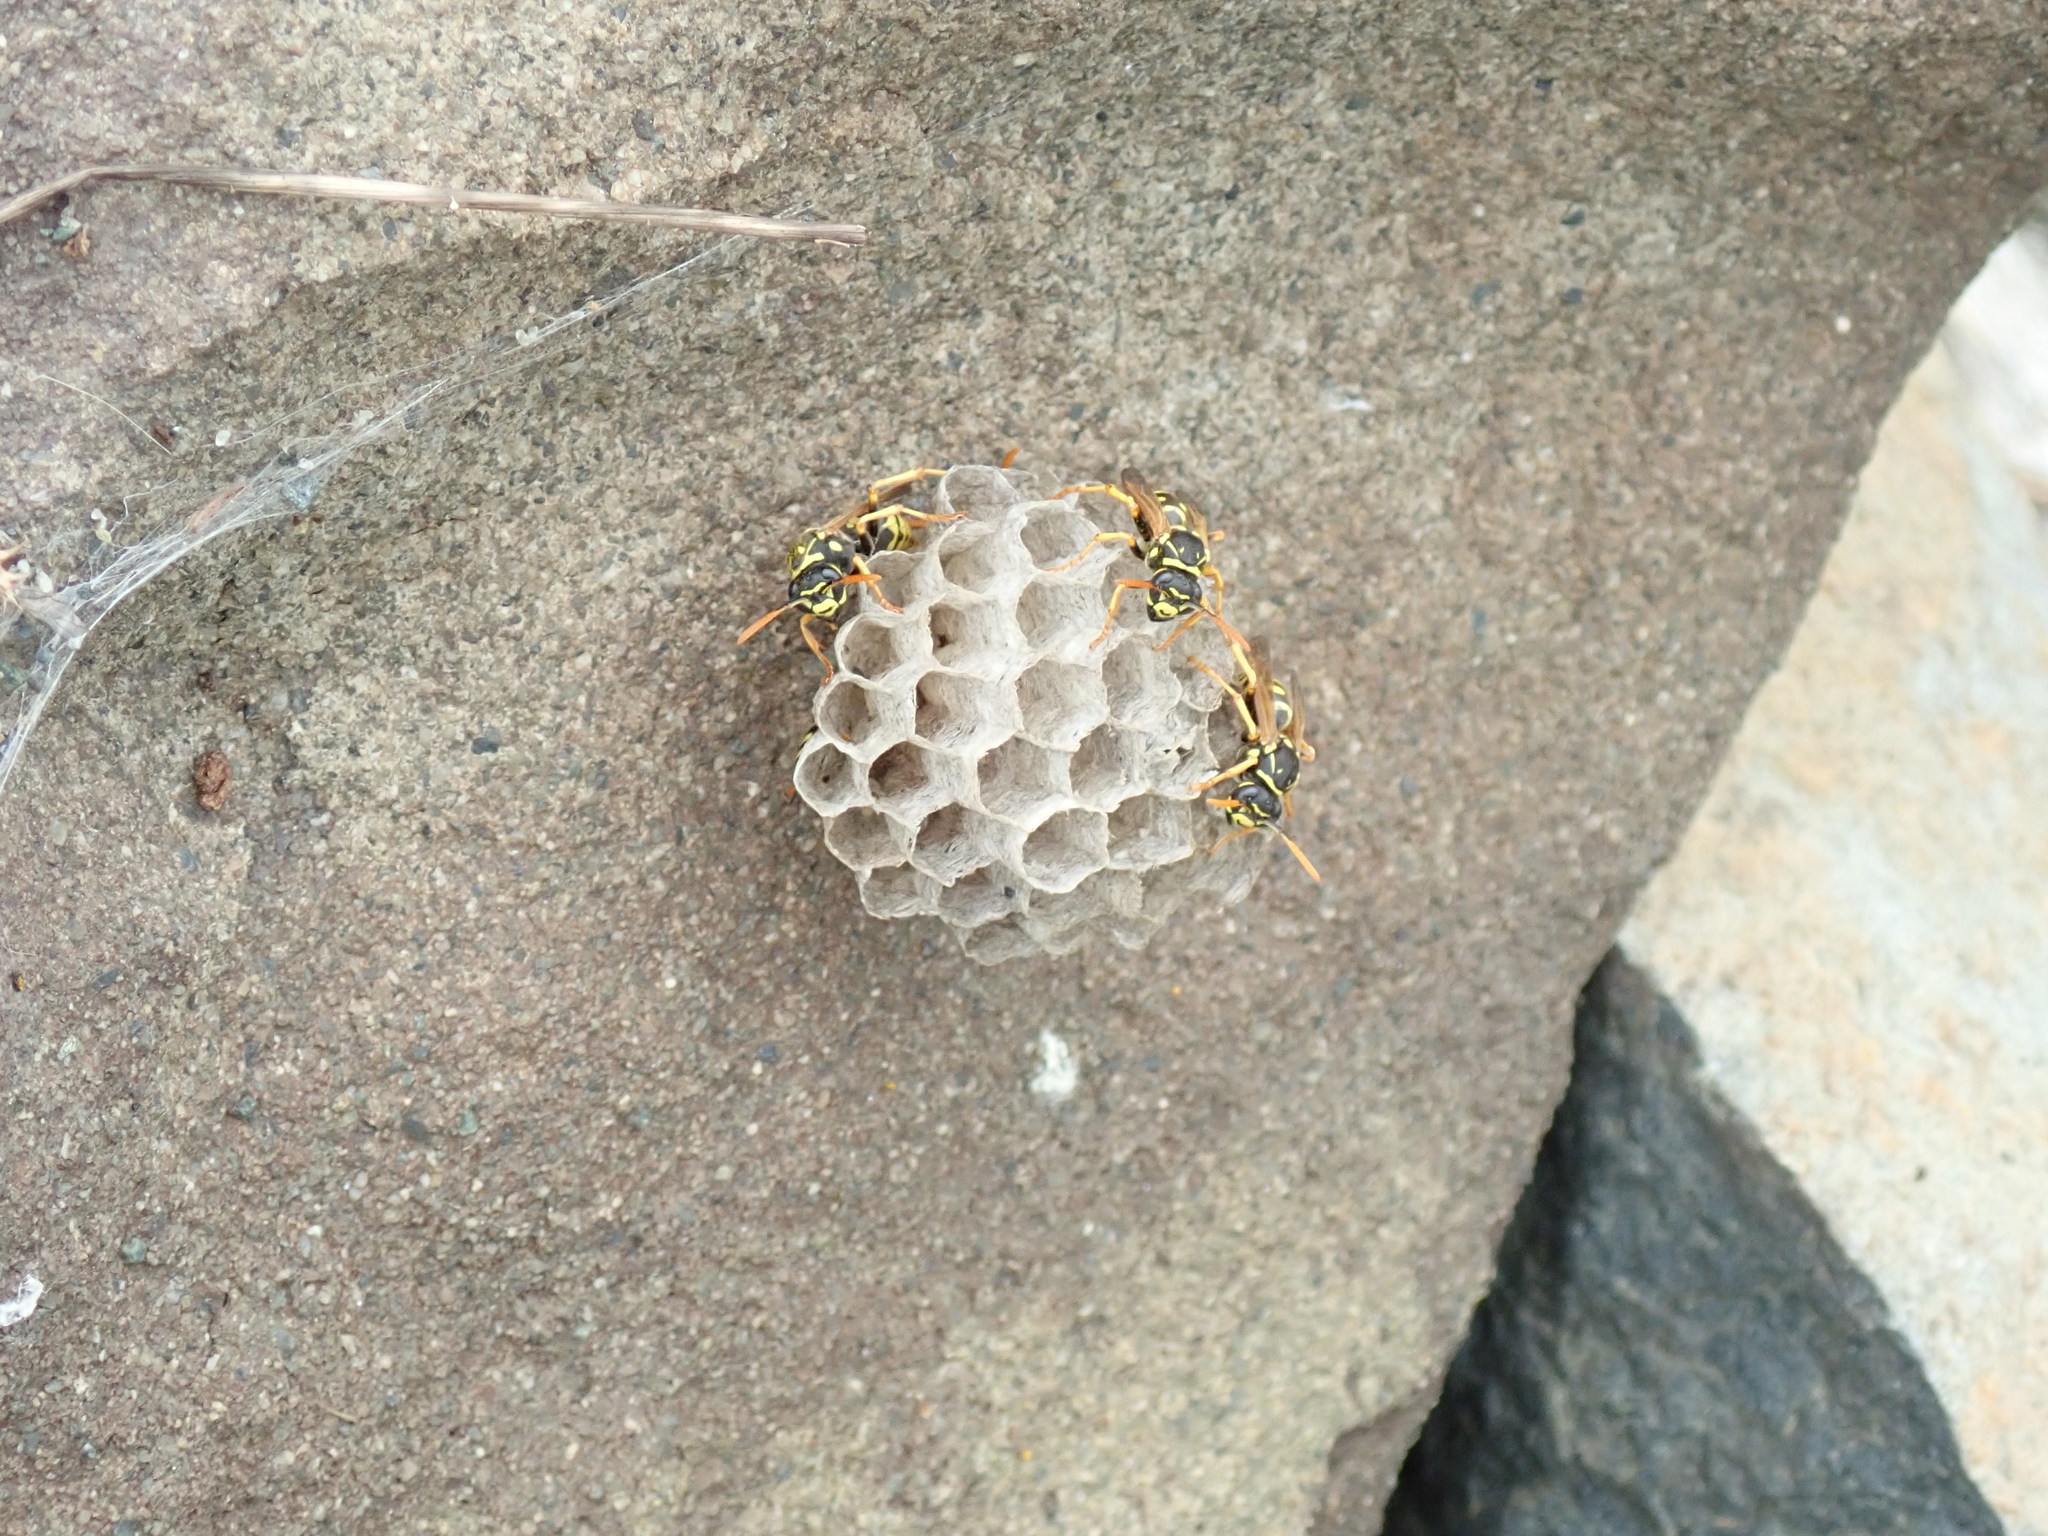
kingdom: Animalia
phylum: Arthropoda
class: Insecta
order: Hymenoptera
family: Eumenidae
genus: Polistes
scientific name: Polistes dominula
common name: Paper wasp
